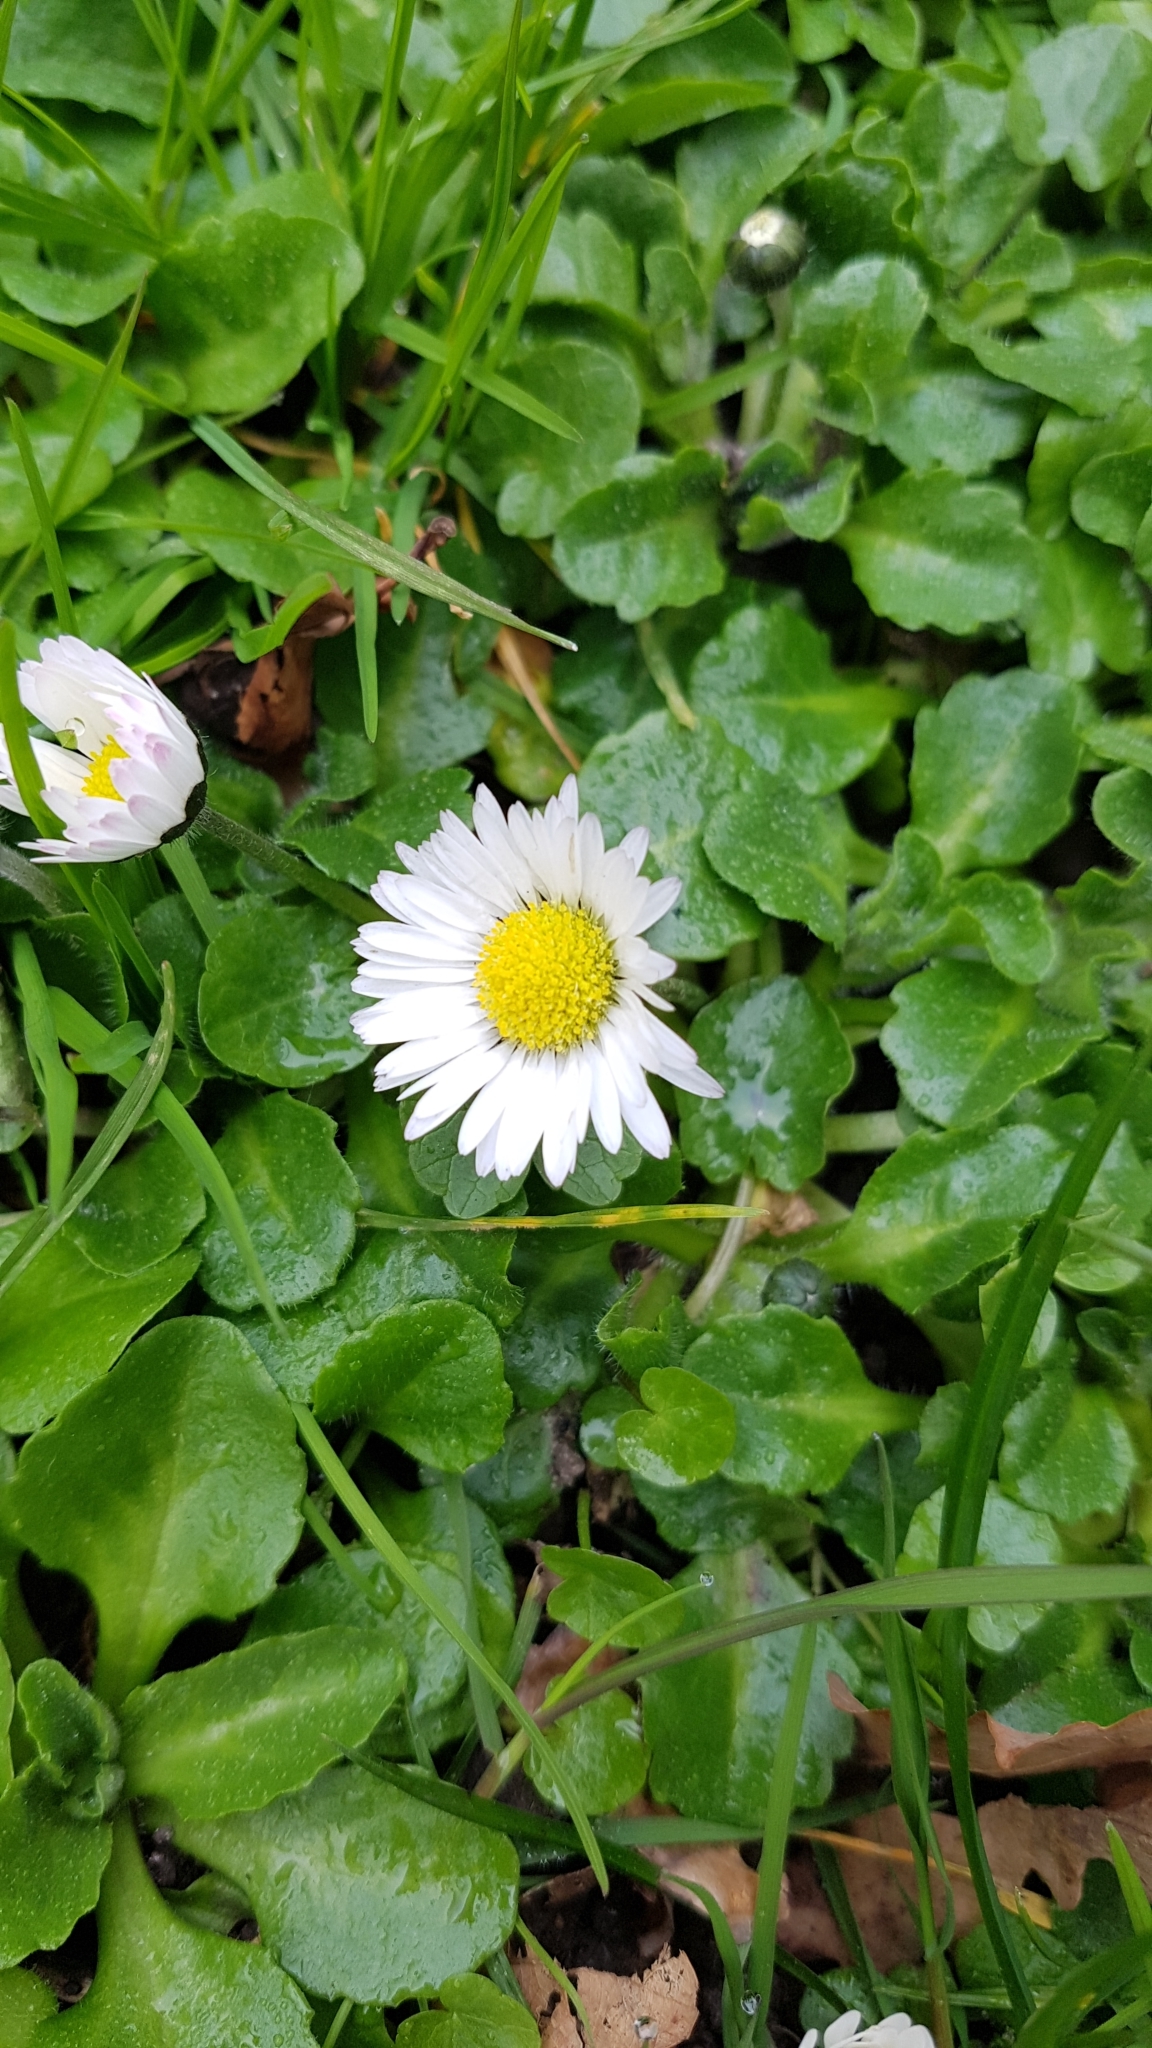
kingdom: Plantae
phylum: Tracheophyta
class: Magnoliopsida
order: Asterales
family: Asteraceae
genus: Bellis
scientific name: Bellis perennis
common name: Lawndaisy
